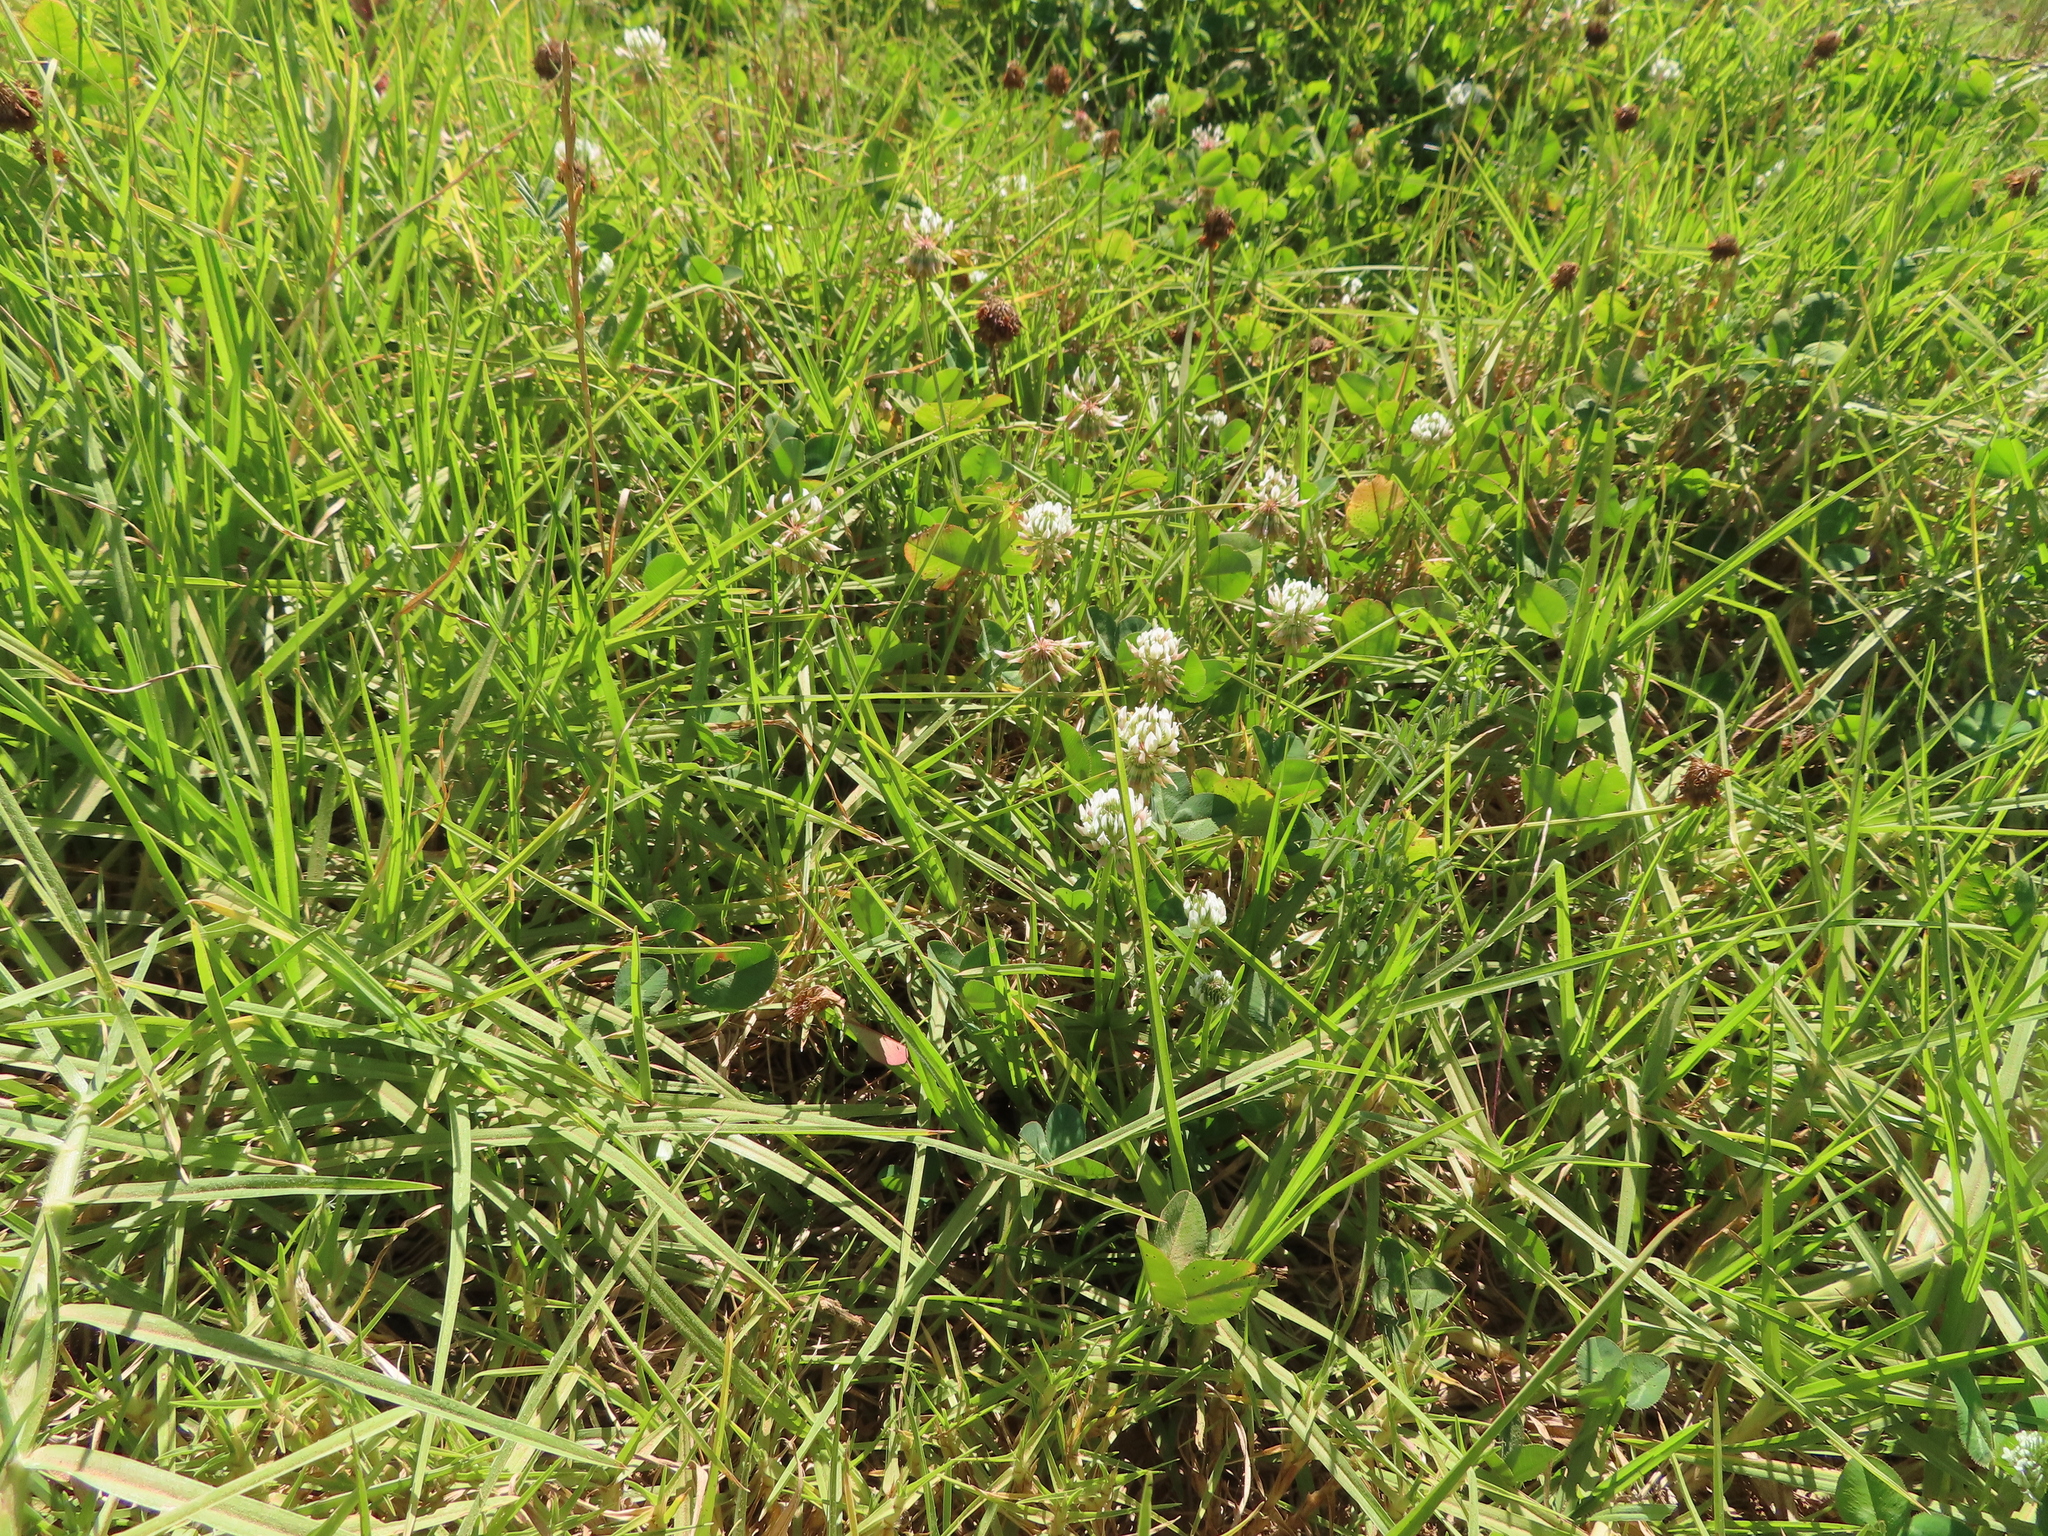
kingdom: Plantae
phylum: Tracheophyta
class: Magnoliopsida
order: Fabales
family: Fabaceae
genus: Trifolium
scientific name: Trifolium repens
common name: White clover
